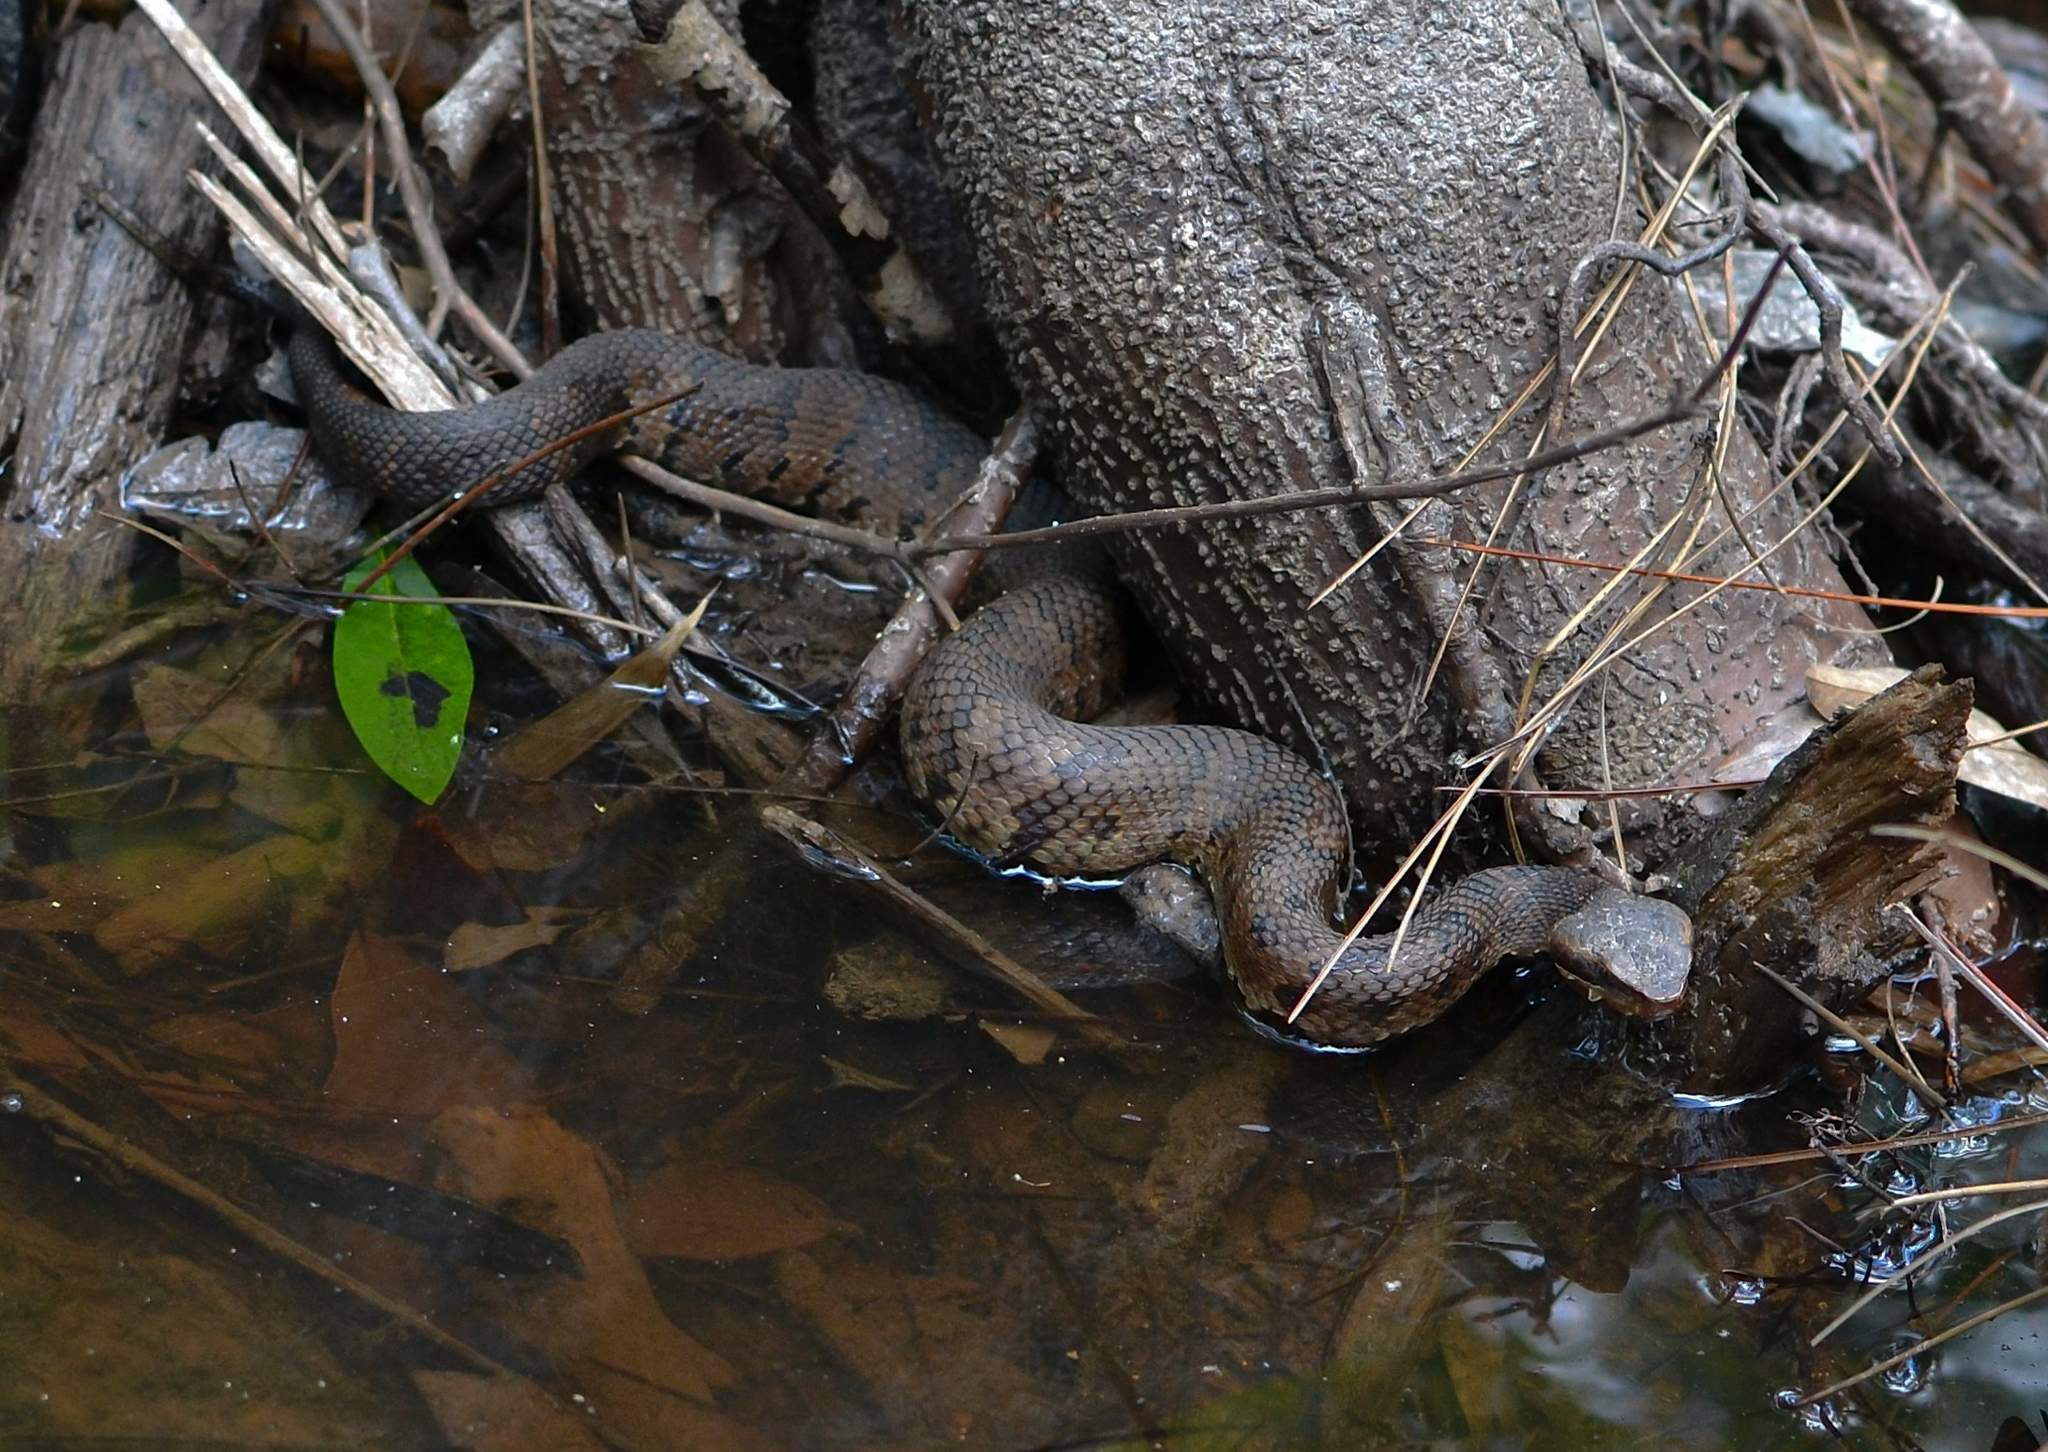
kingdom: Animalia
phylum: Chordata
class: Squamata
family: Viperidae
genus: Agkistrodon
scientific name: Agkistrodon piscivorus
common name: Cottonmouth
